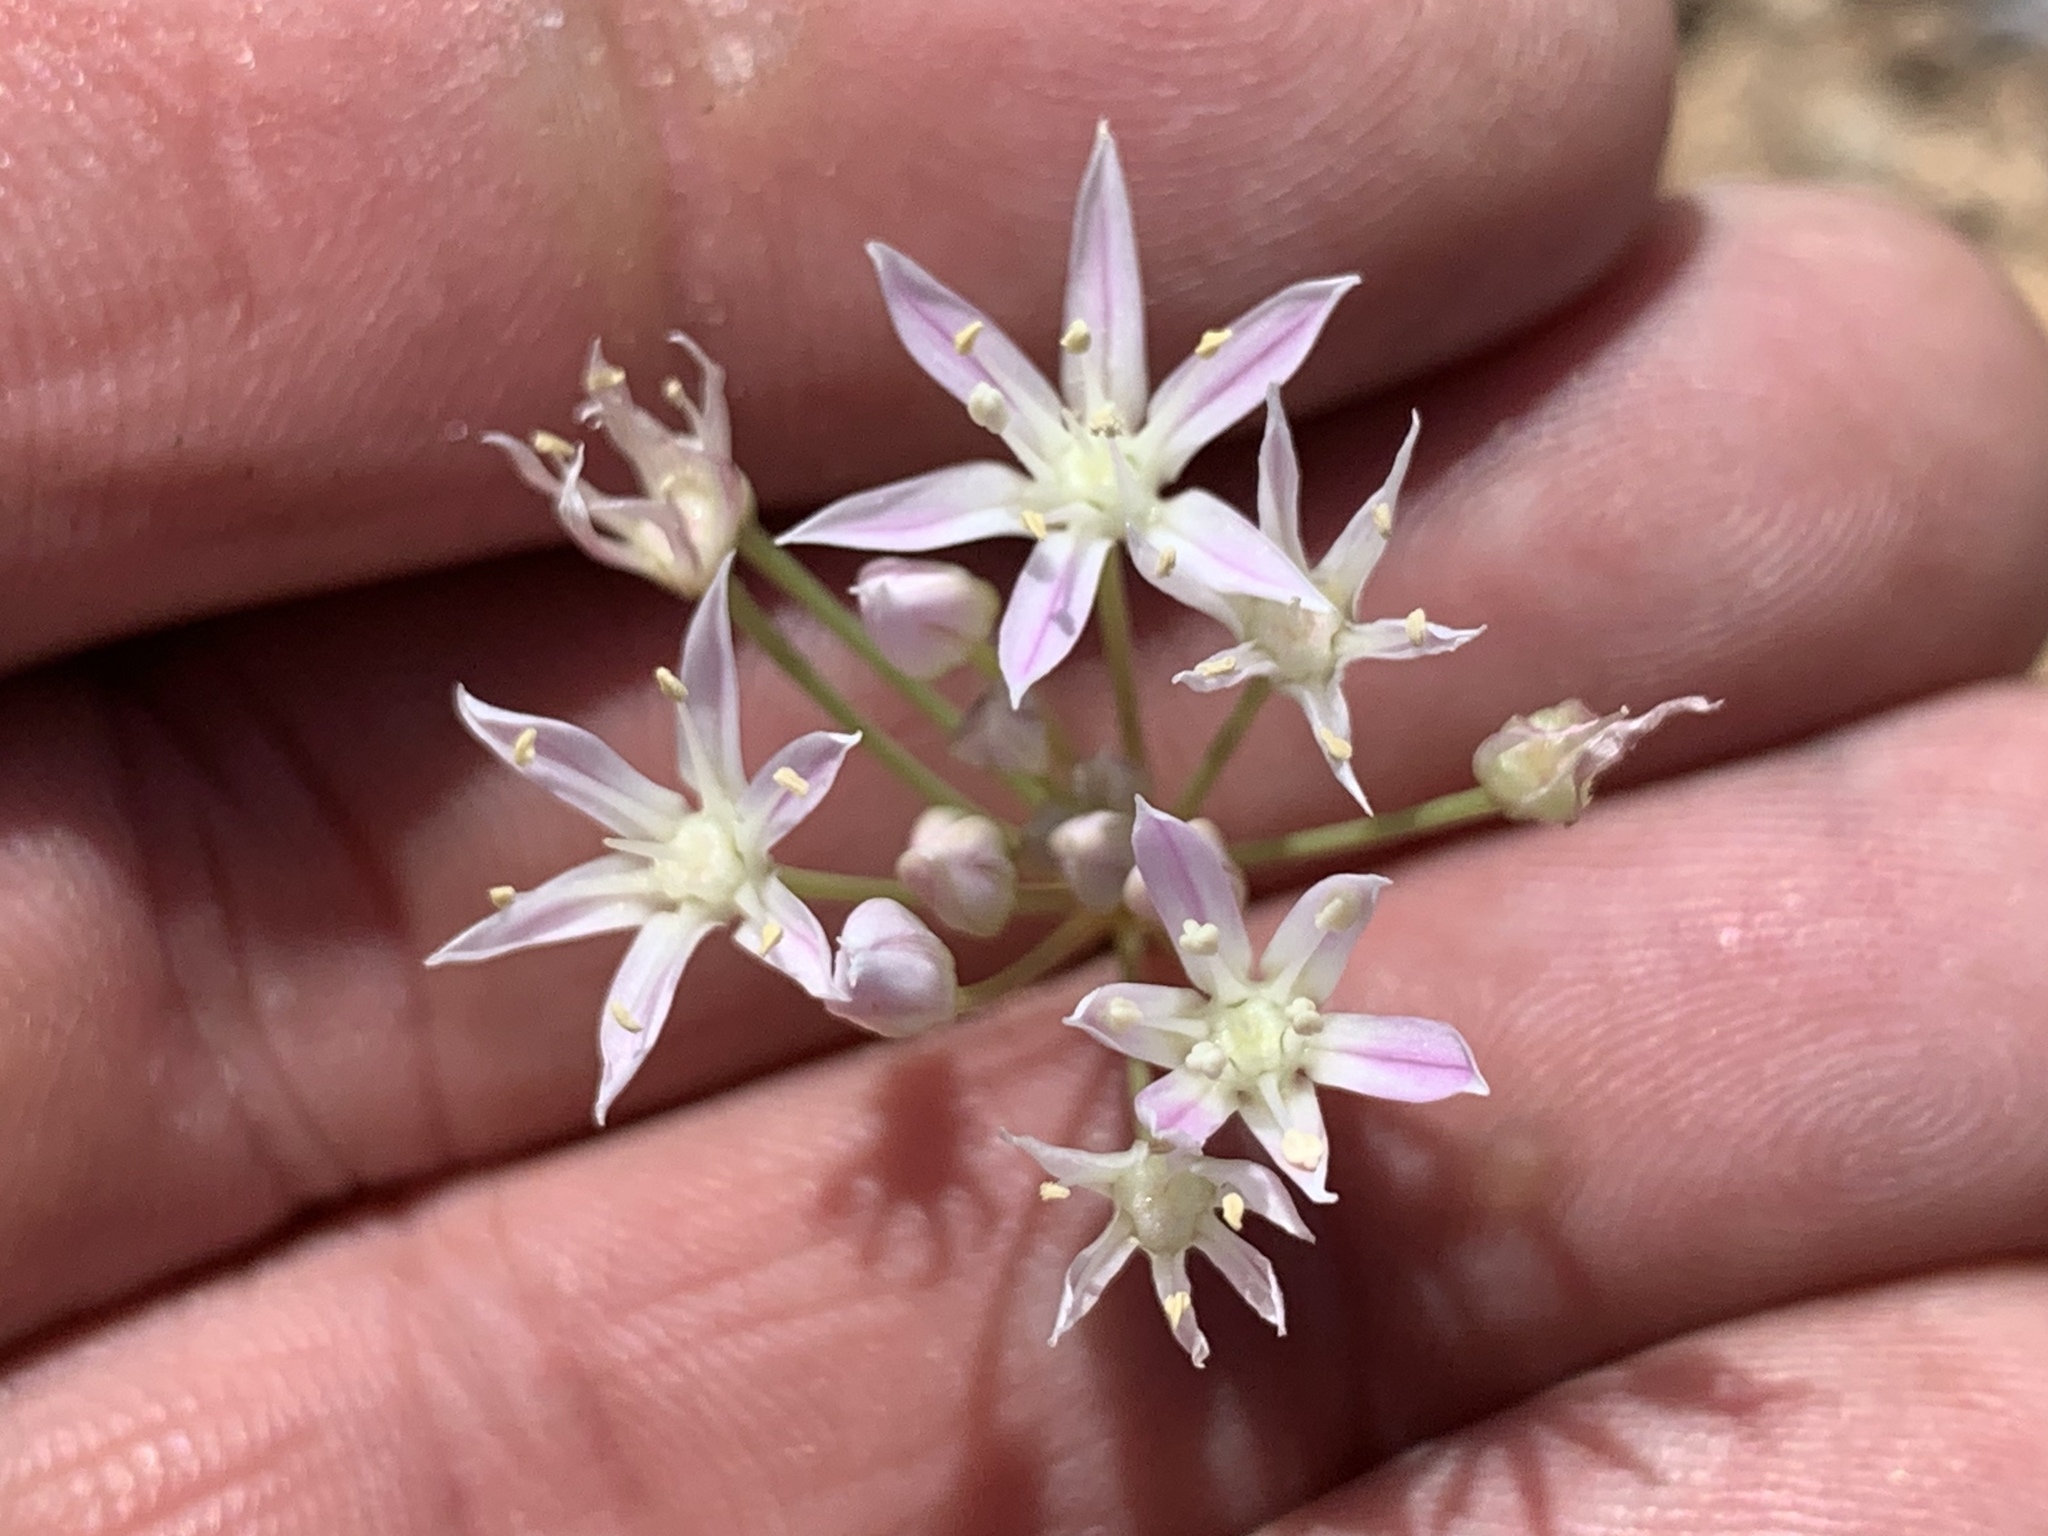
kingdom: Plantae
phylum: Tracheophyta
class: Liliopsida
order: Asparagales
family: Amaryllidaceae
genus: Allium
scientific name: Allium longifolium
